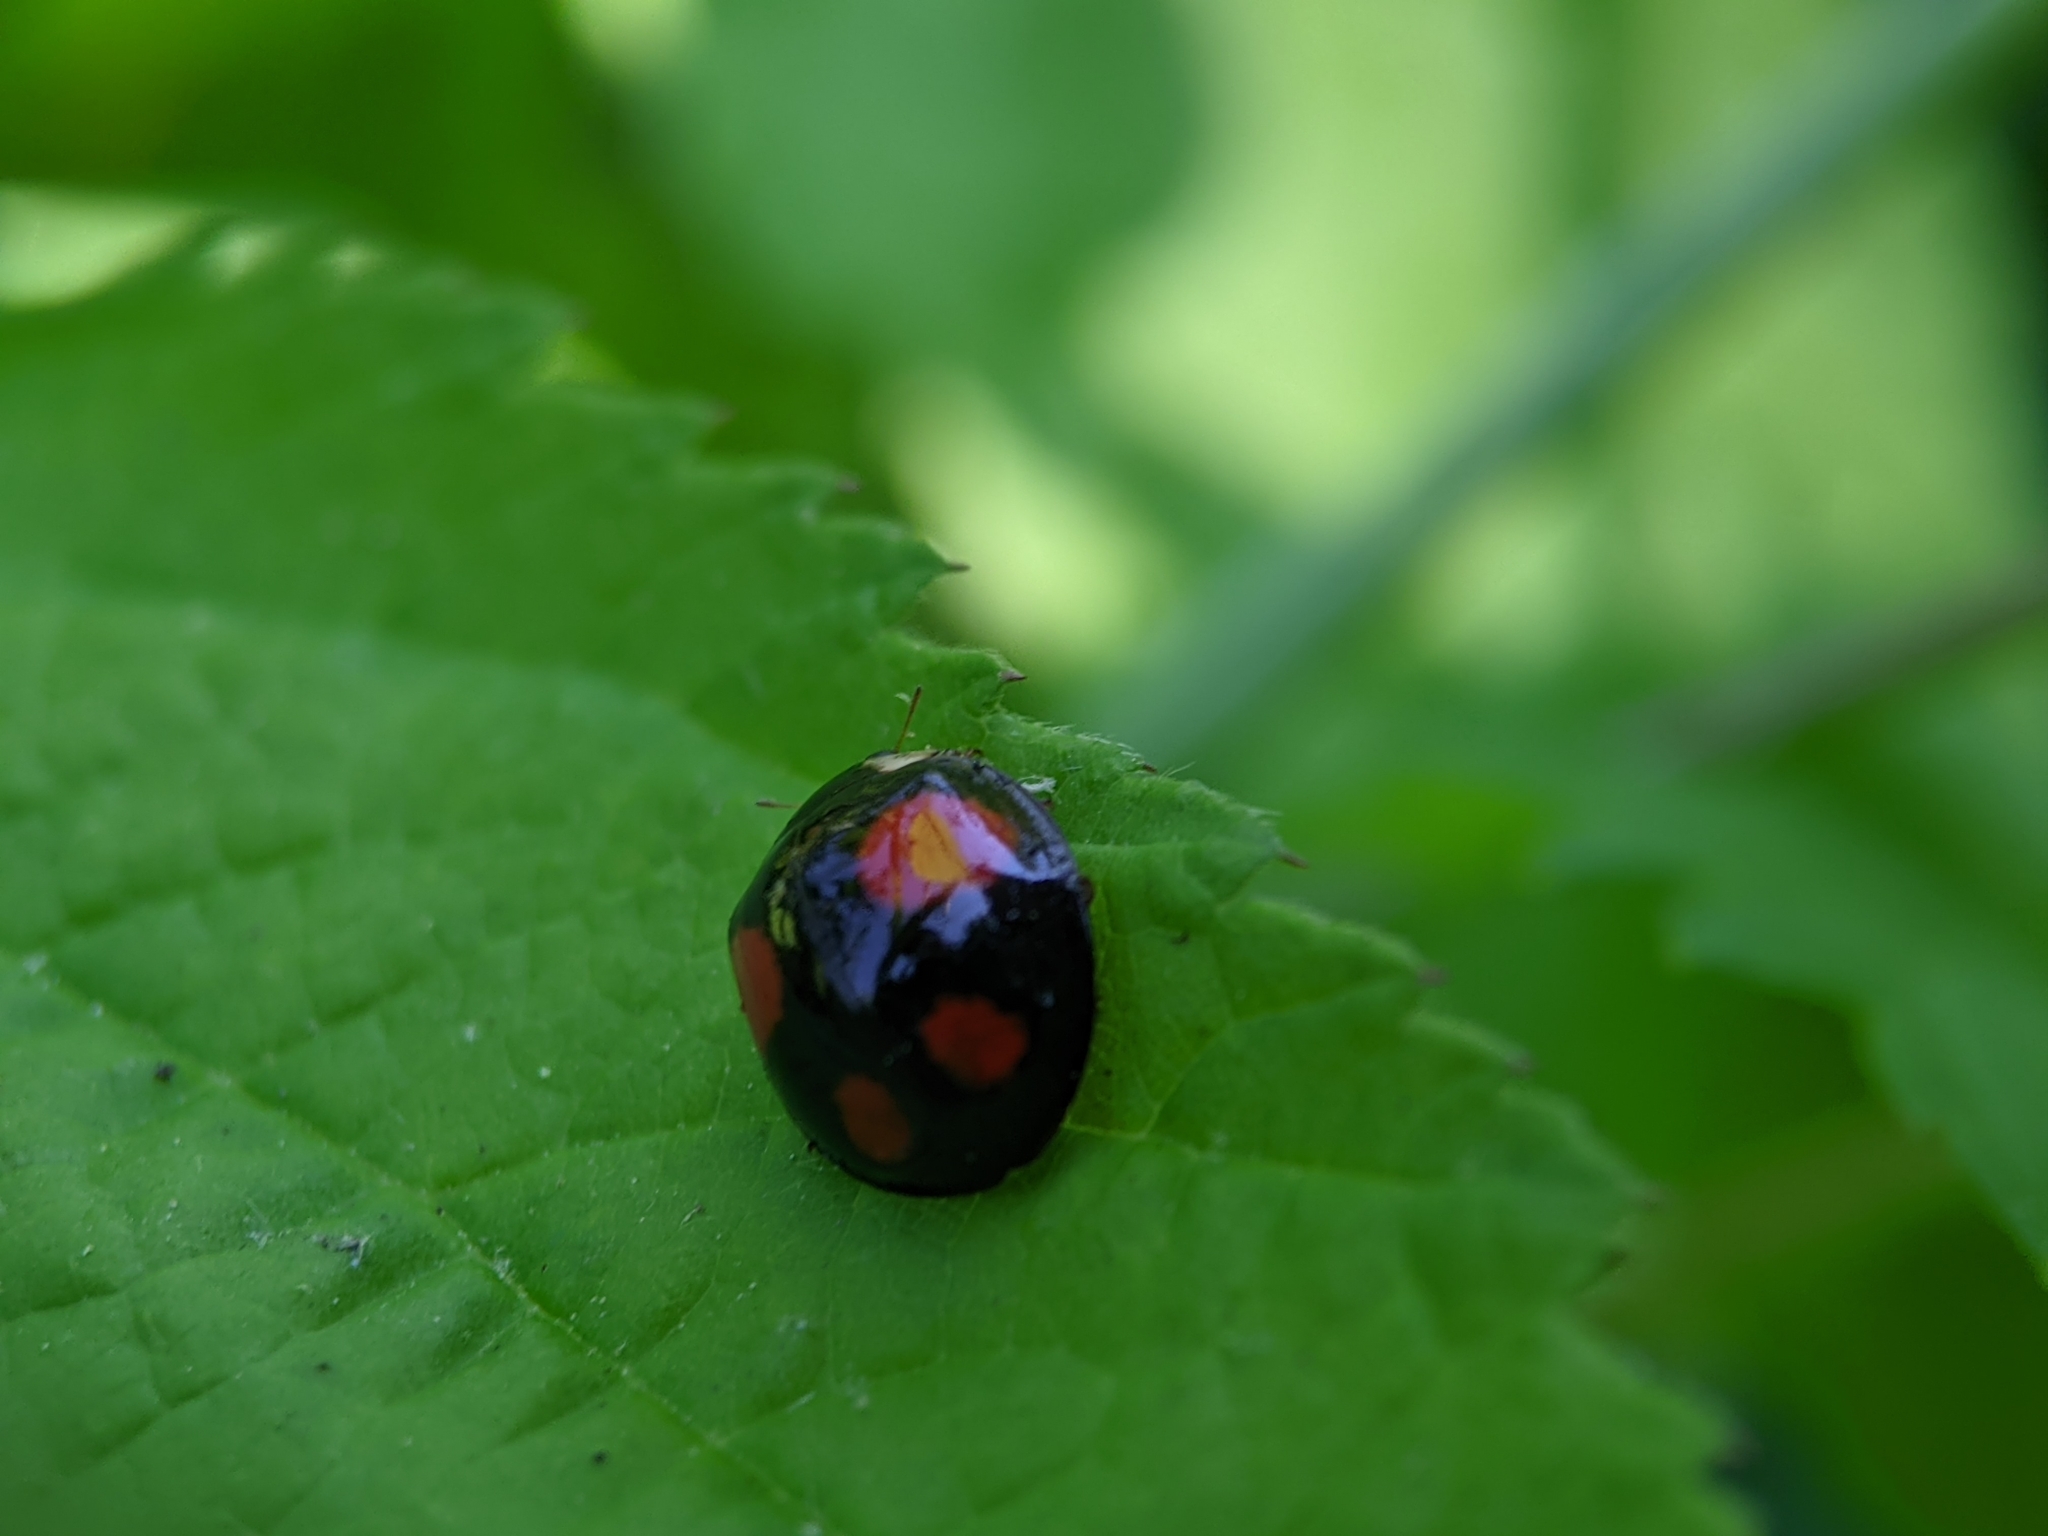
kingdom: Animalia
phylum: Arthropoda
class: Insecta
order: Coleoptera
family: Coccinellidae
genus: Harmonia
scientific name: Harmonia axyridis
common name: Harlequin ladybird
